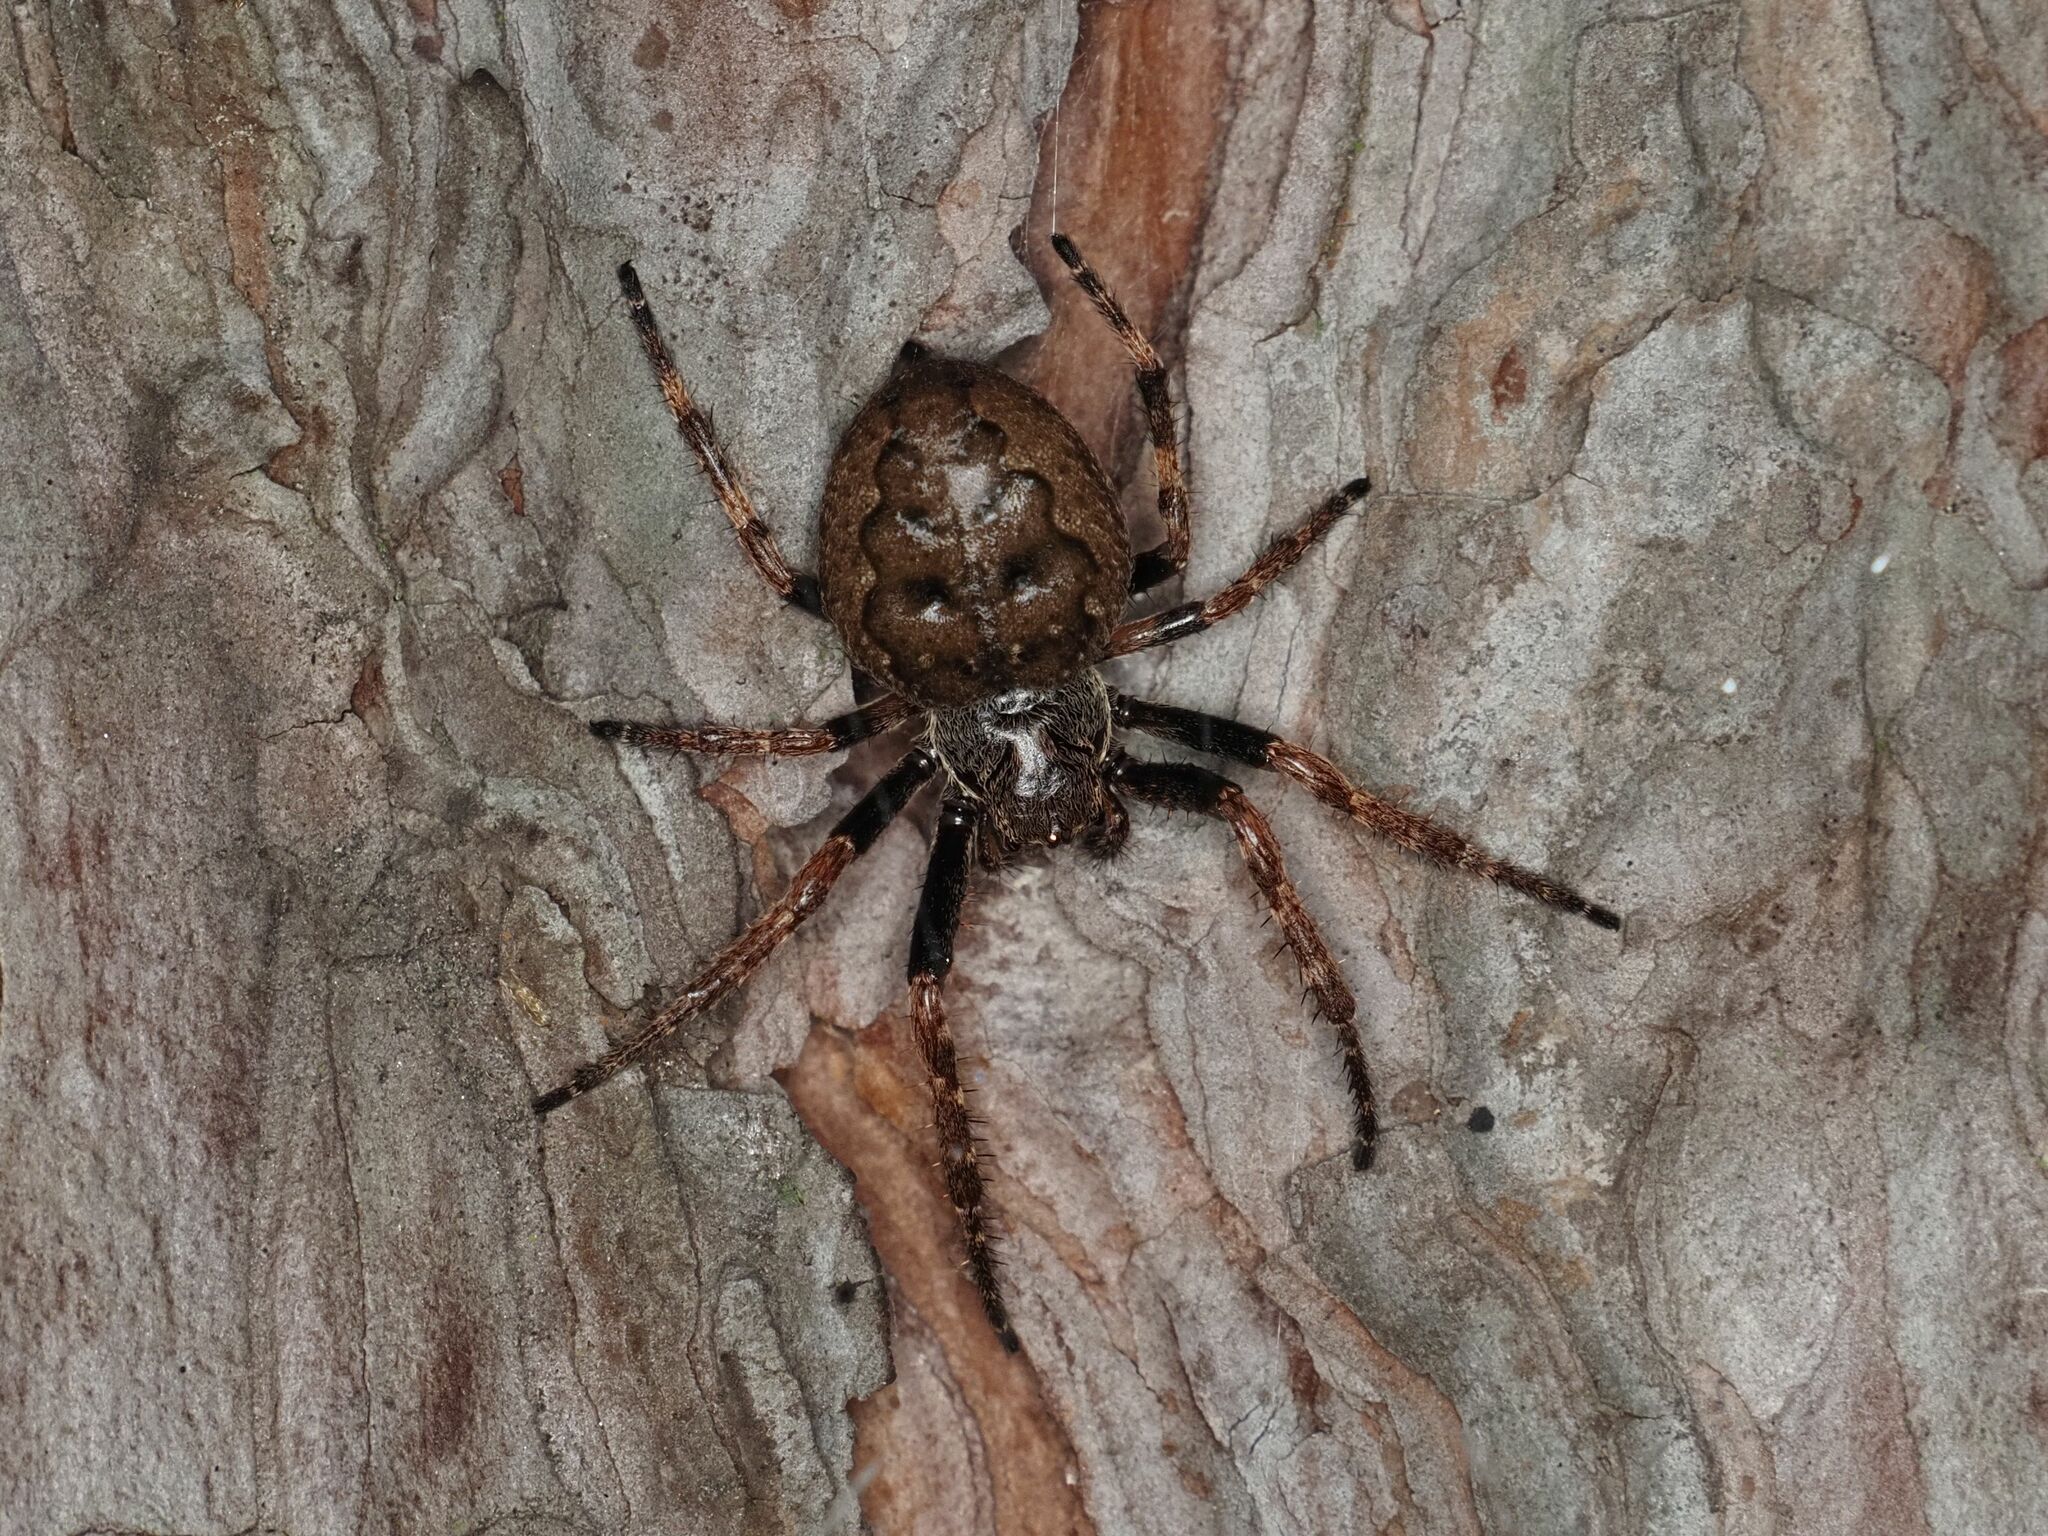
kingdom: Animalia
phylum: Arthropoda
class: Arachnida
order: Araneae
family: Araneidae
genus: Nuctenea
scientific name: Nuctenea umbratica
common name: Toad spider
